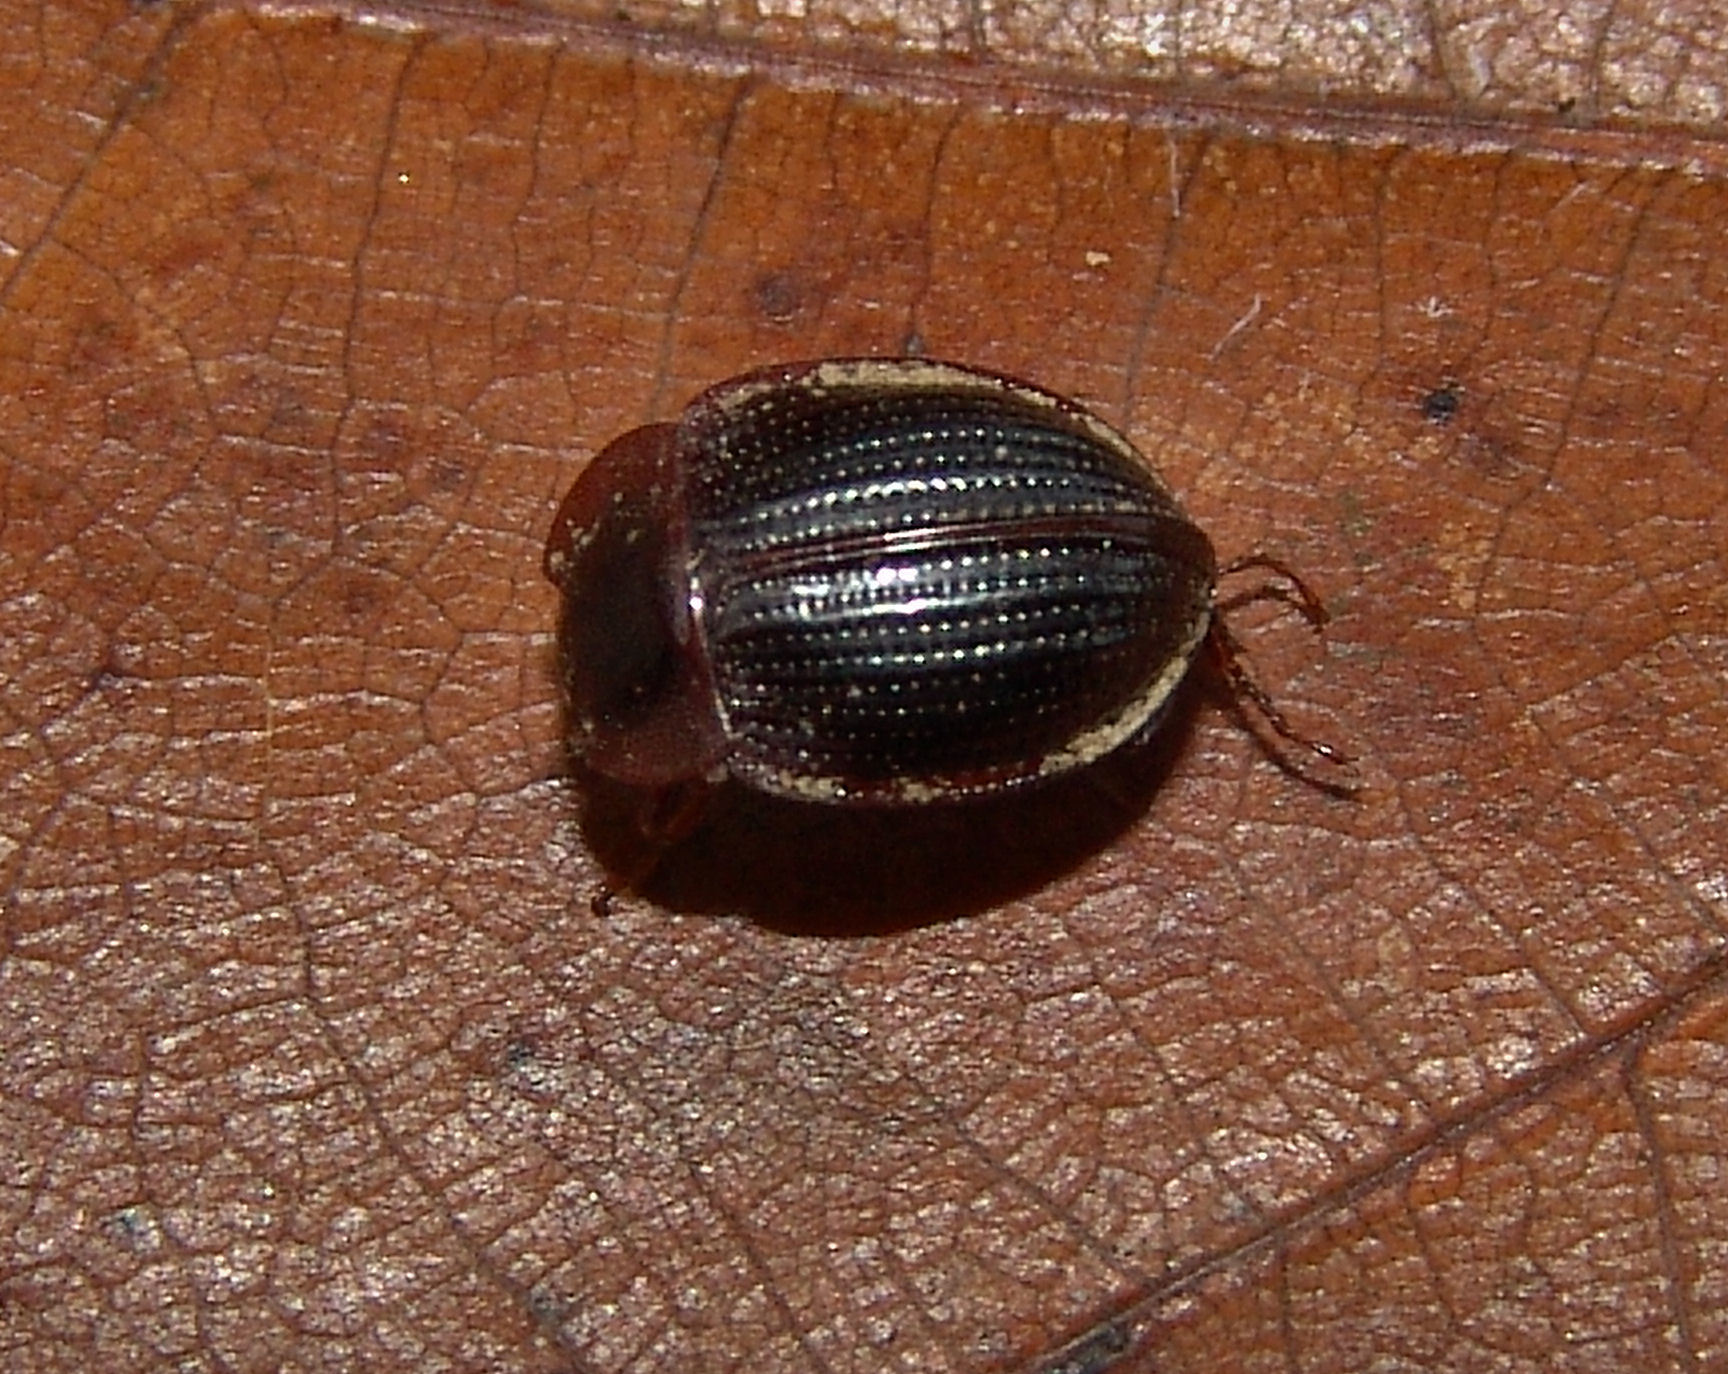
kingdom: Animalia
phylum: Arthropoda
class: Insecta
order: Coleoptera
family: Agyrtidae
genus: Necrophilus
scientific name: Necrophilus pettitii
